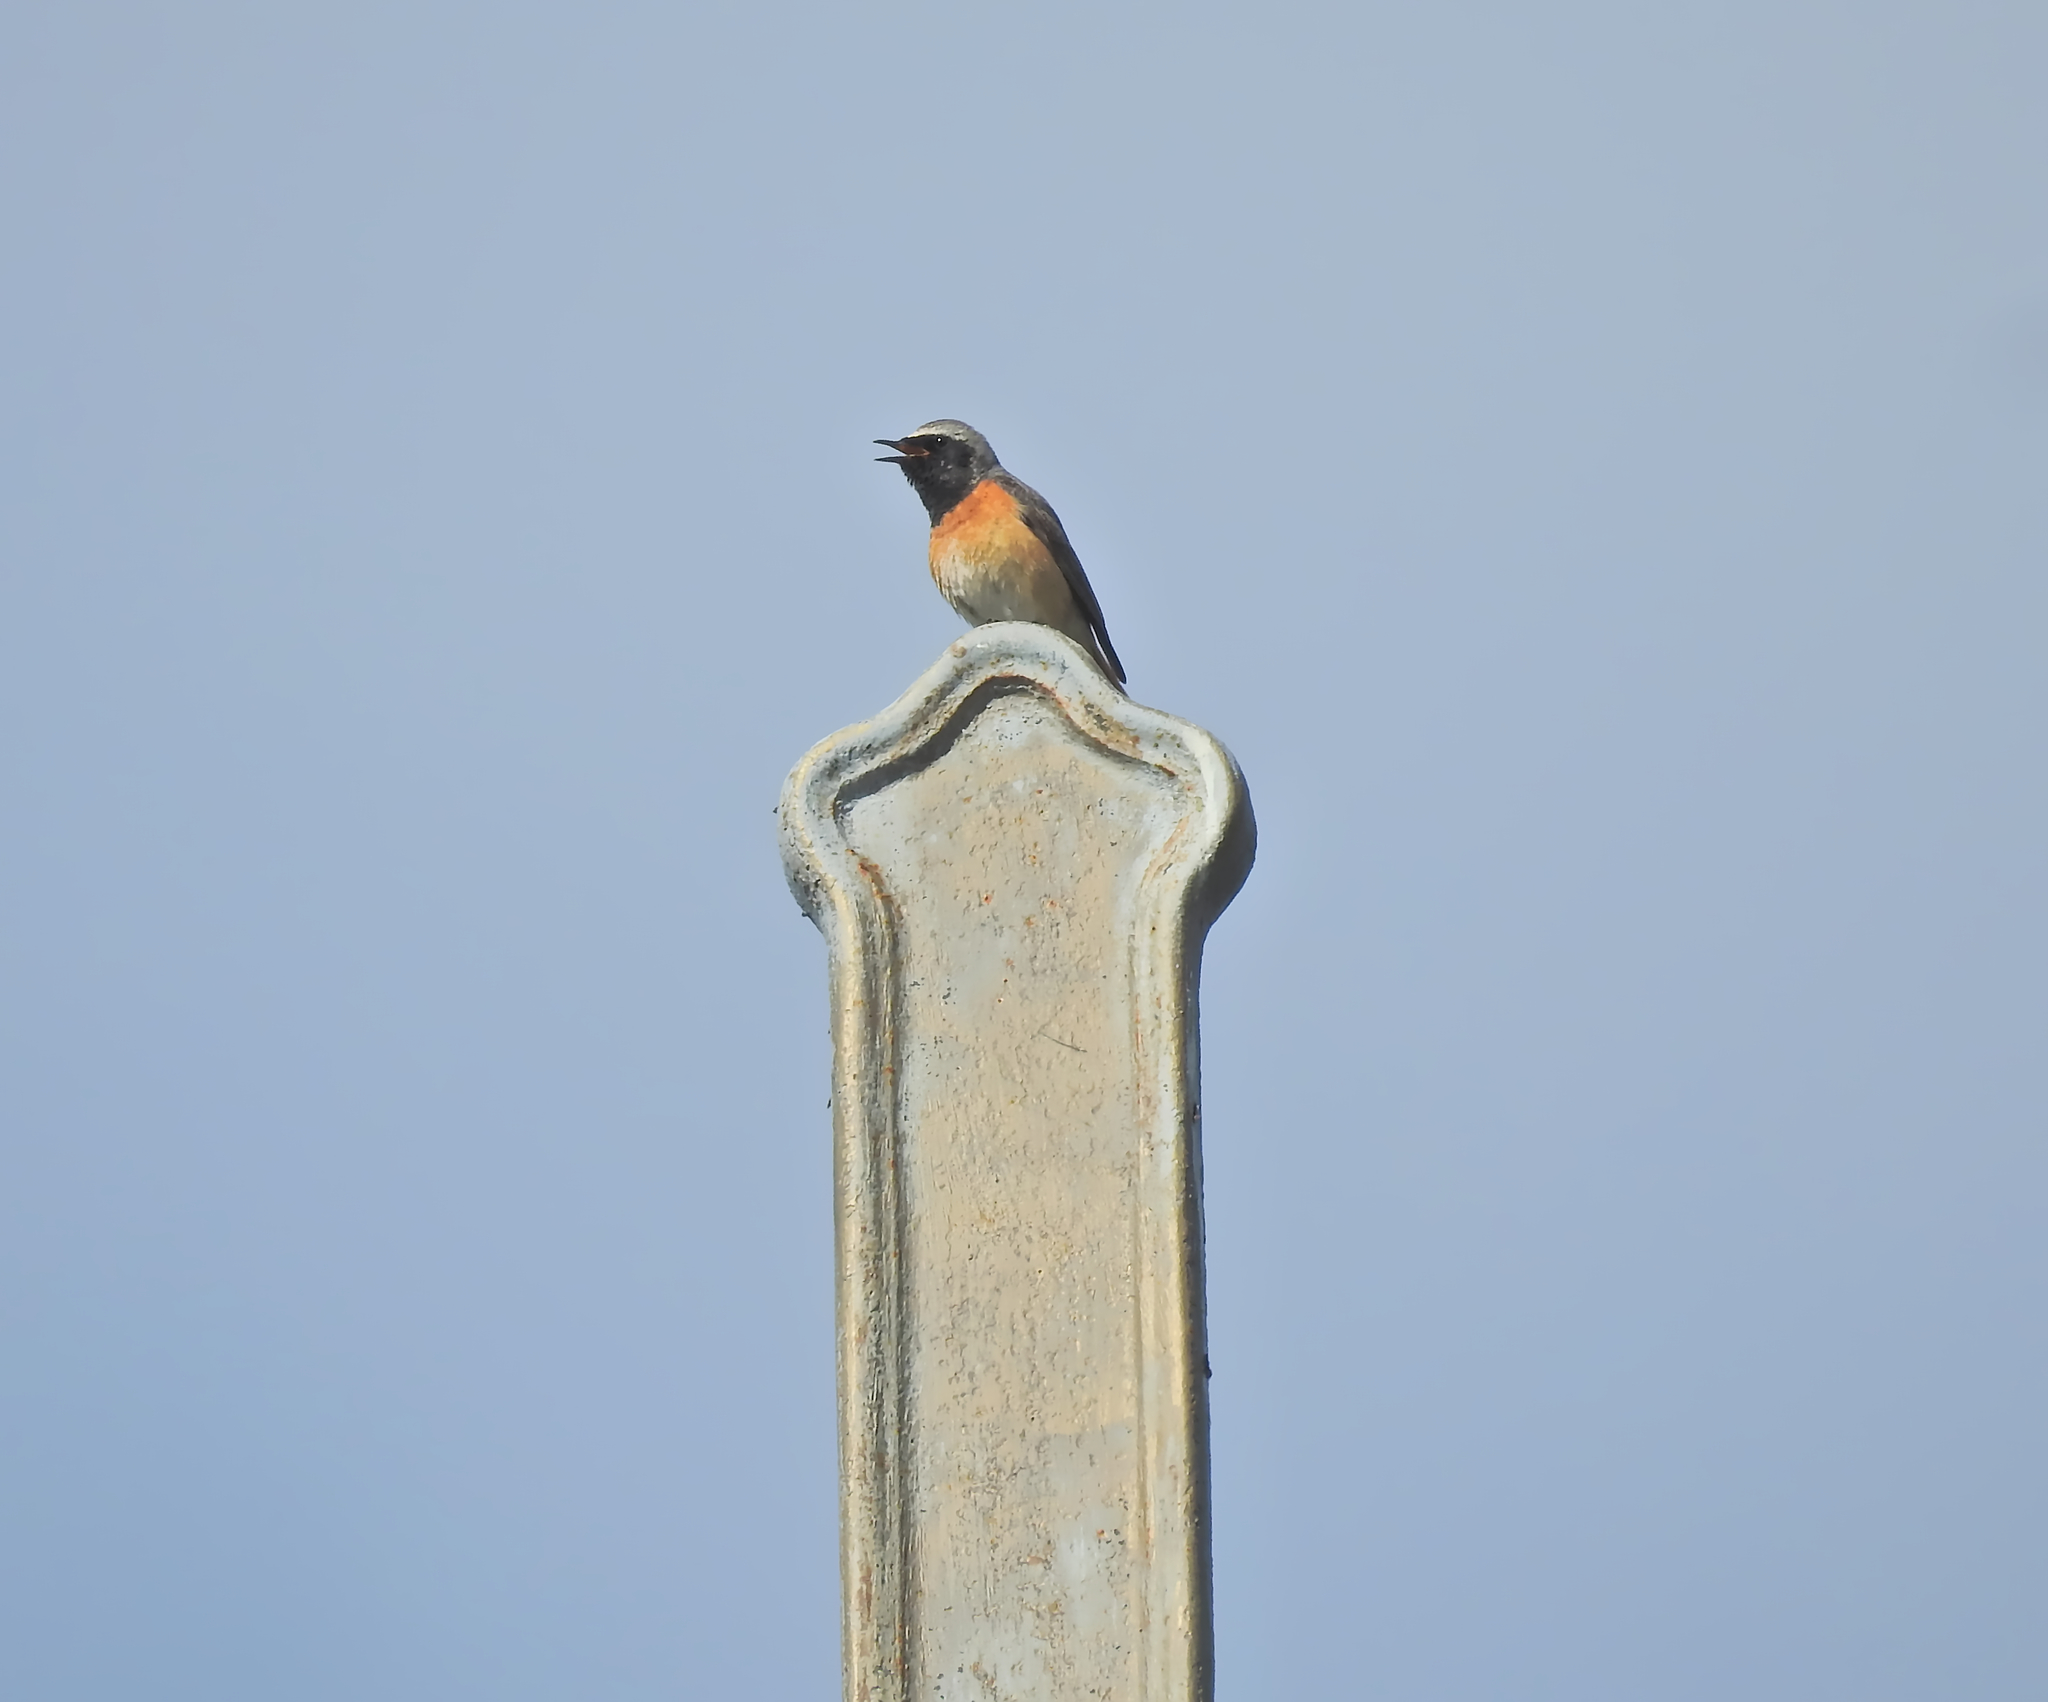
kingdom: Animalia
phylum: Chordata
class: Aves
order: Passeriformes
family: Muscicapidae
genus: Phoenicurus
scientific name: Phoenicurus phoenicurus
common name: Common redstart
